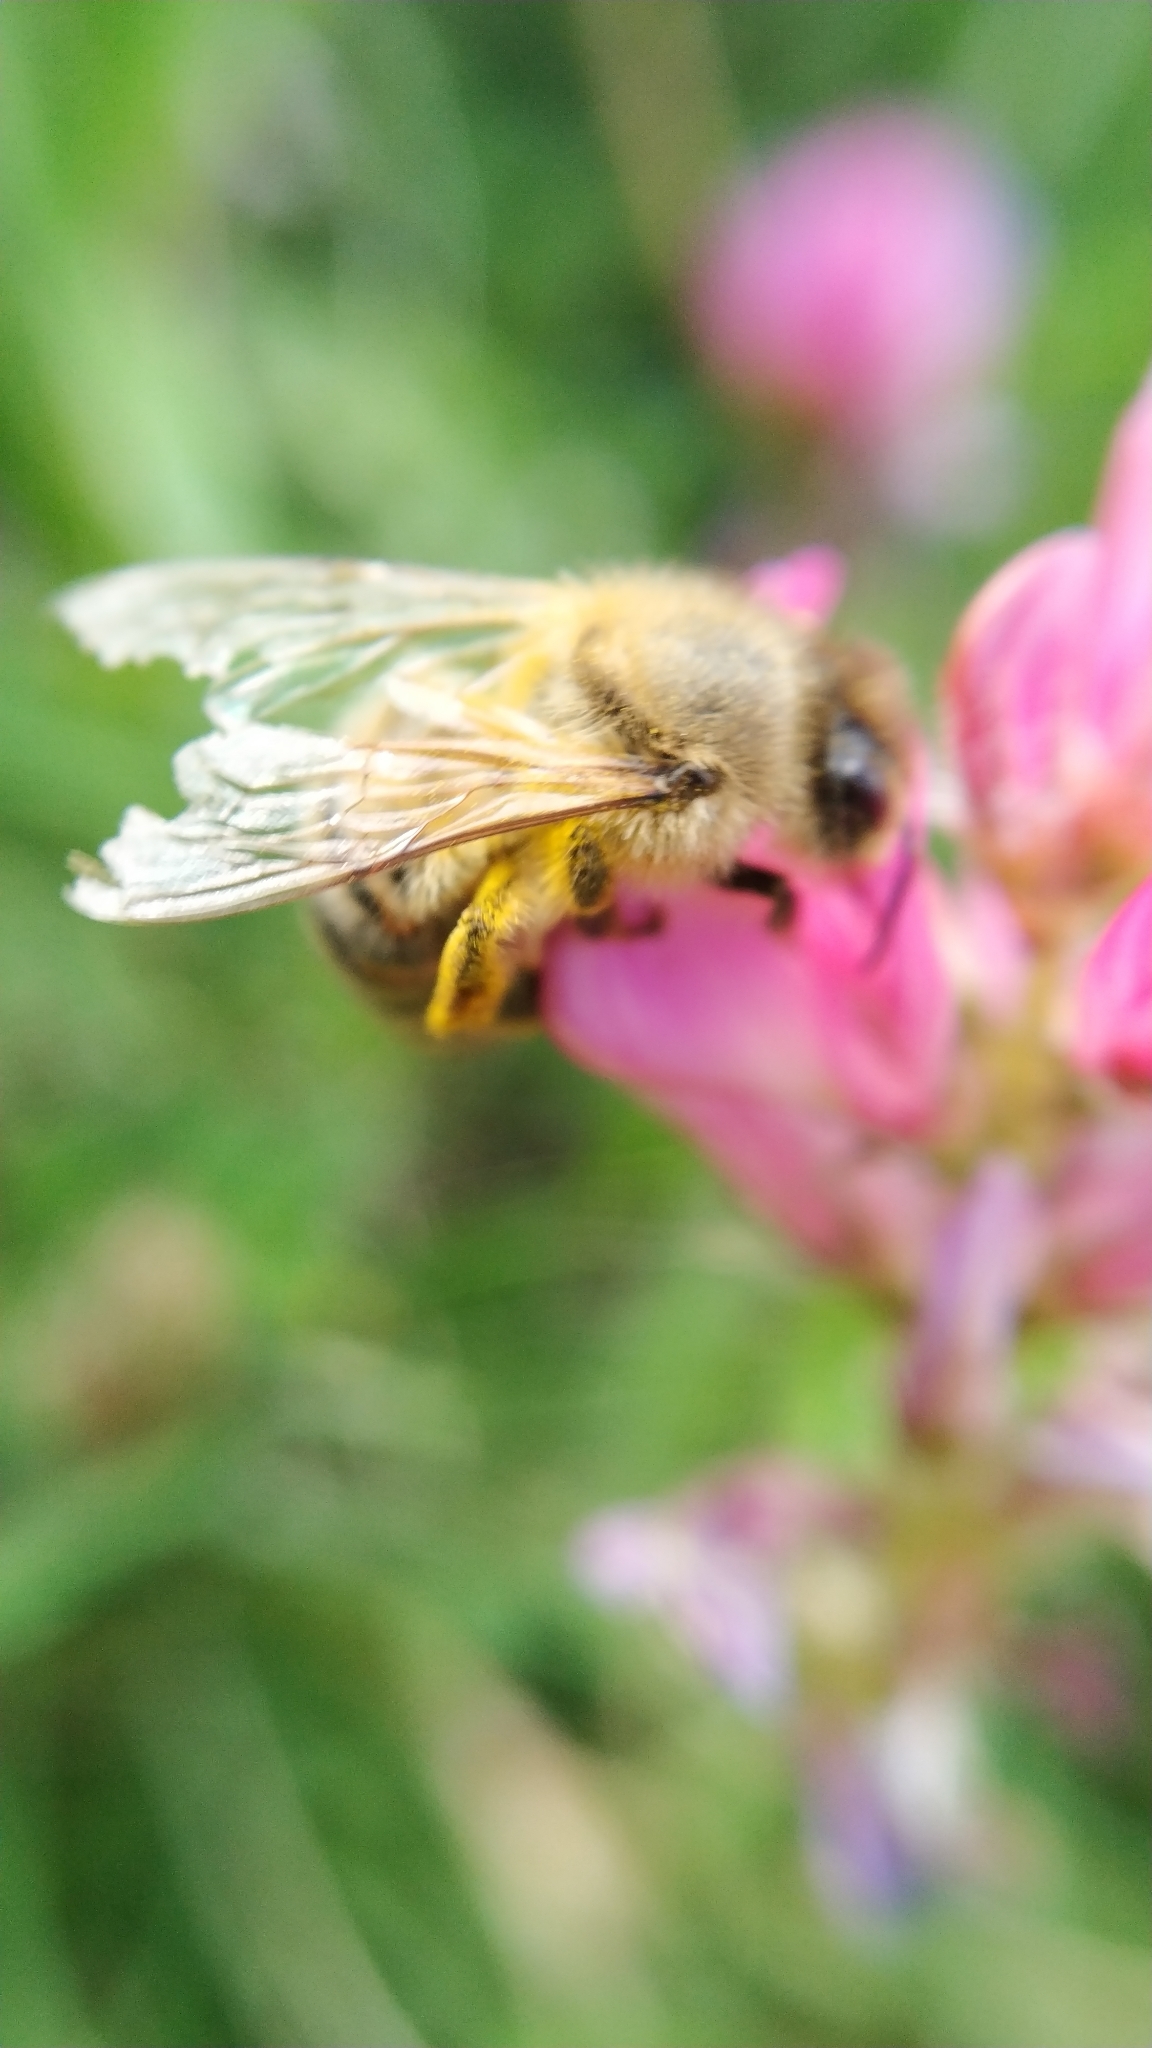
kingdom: Animalia
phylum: Arthropoda
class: Insecta
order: Hymenoptera
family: Apidae
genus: Apis
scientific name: Apis mellifera
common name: Honey bee
